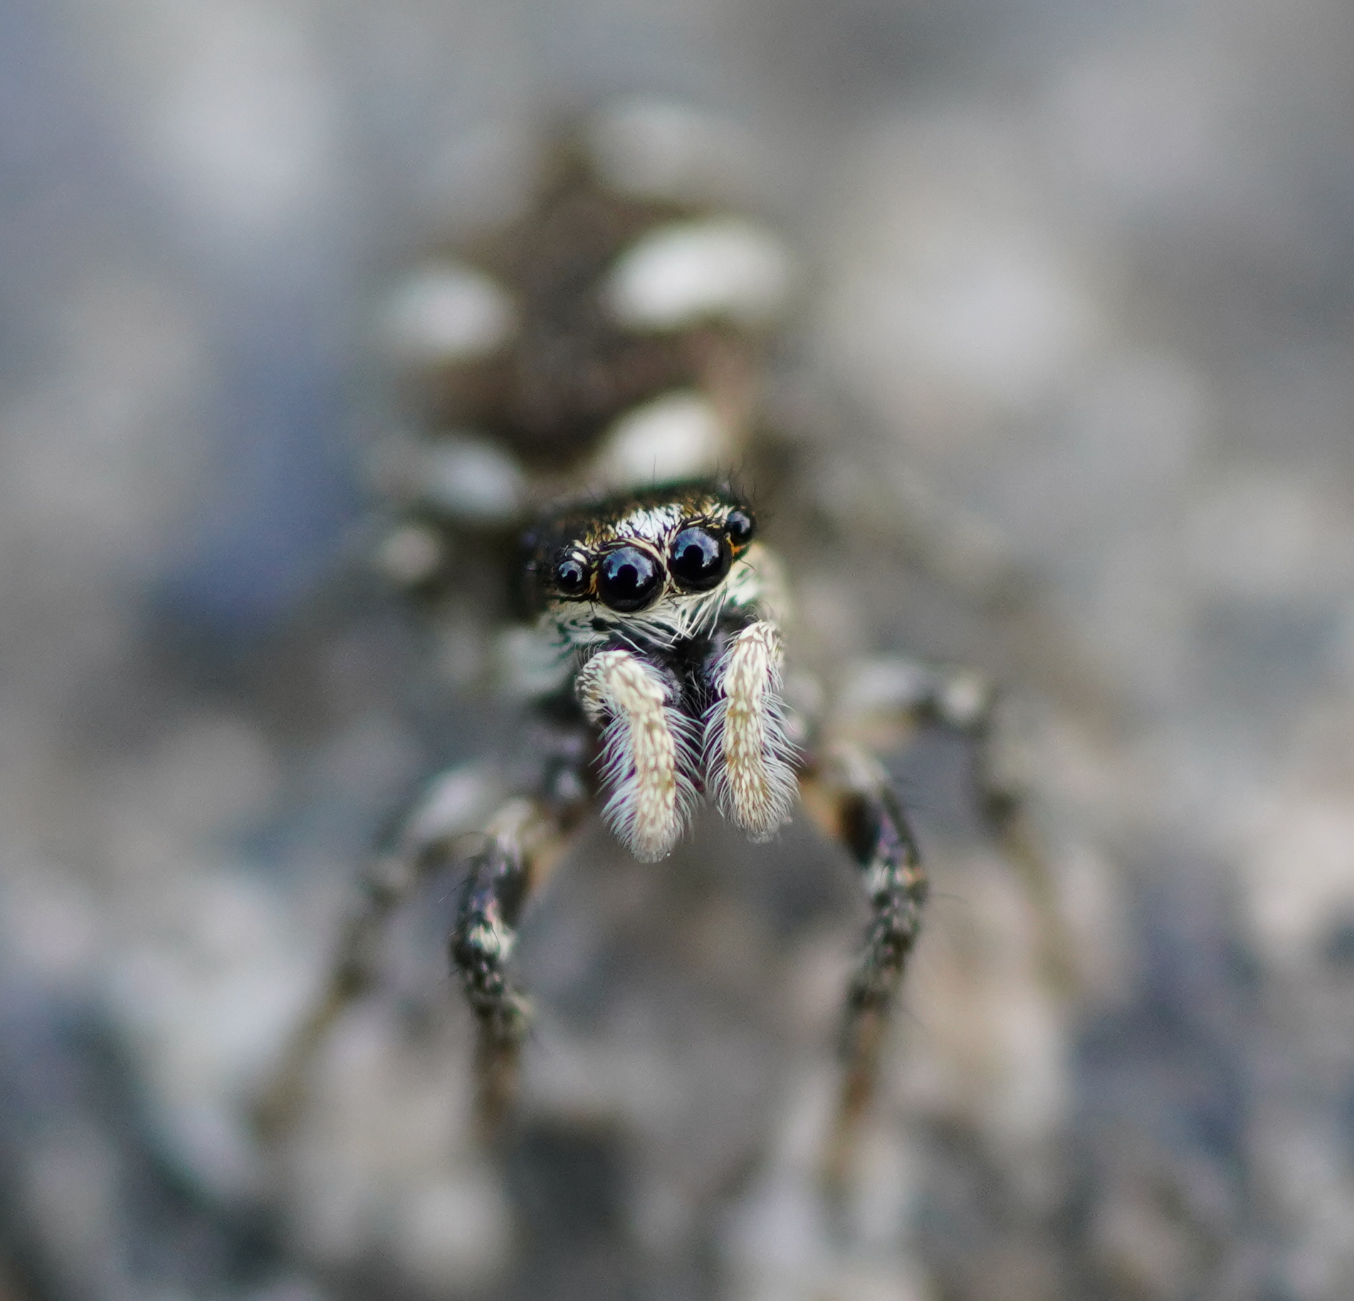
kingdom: Animalia
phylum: Arthropoda
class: Arachnida
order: Araneae
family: Salticidae
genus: Salticus
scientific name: Salticus scenicus
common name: Zebra jumper
